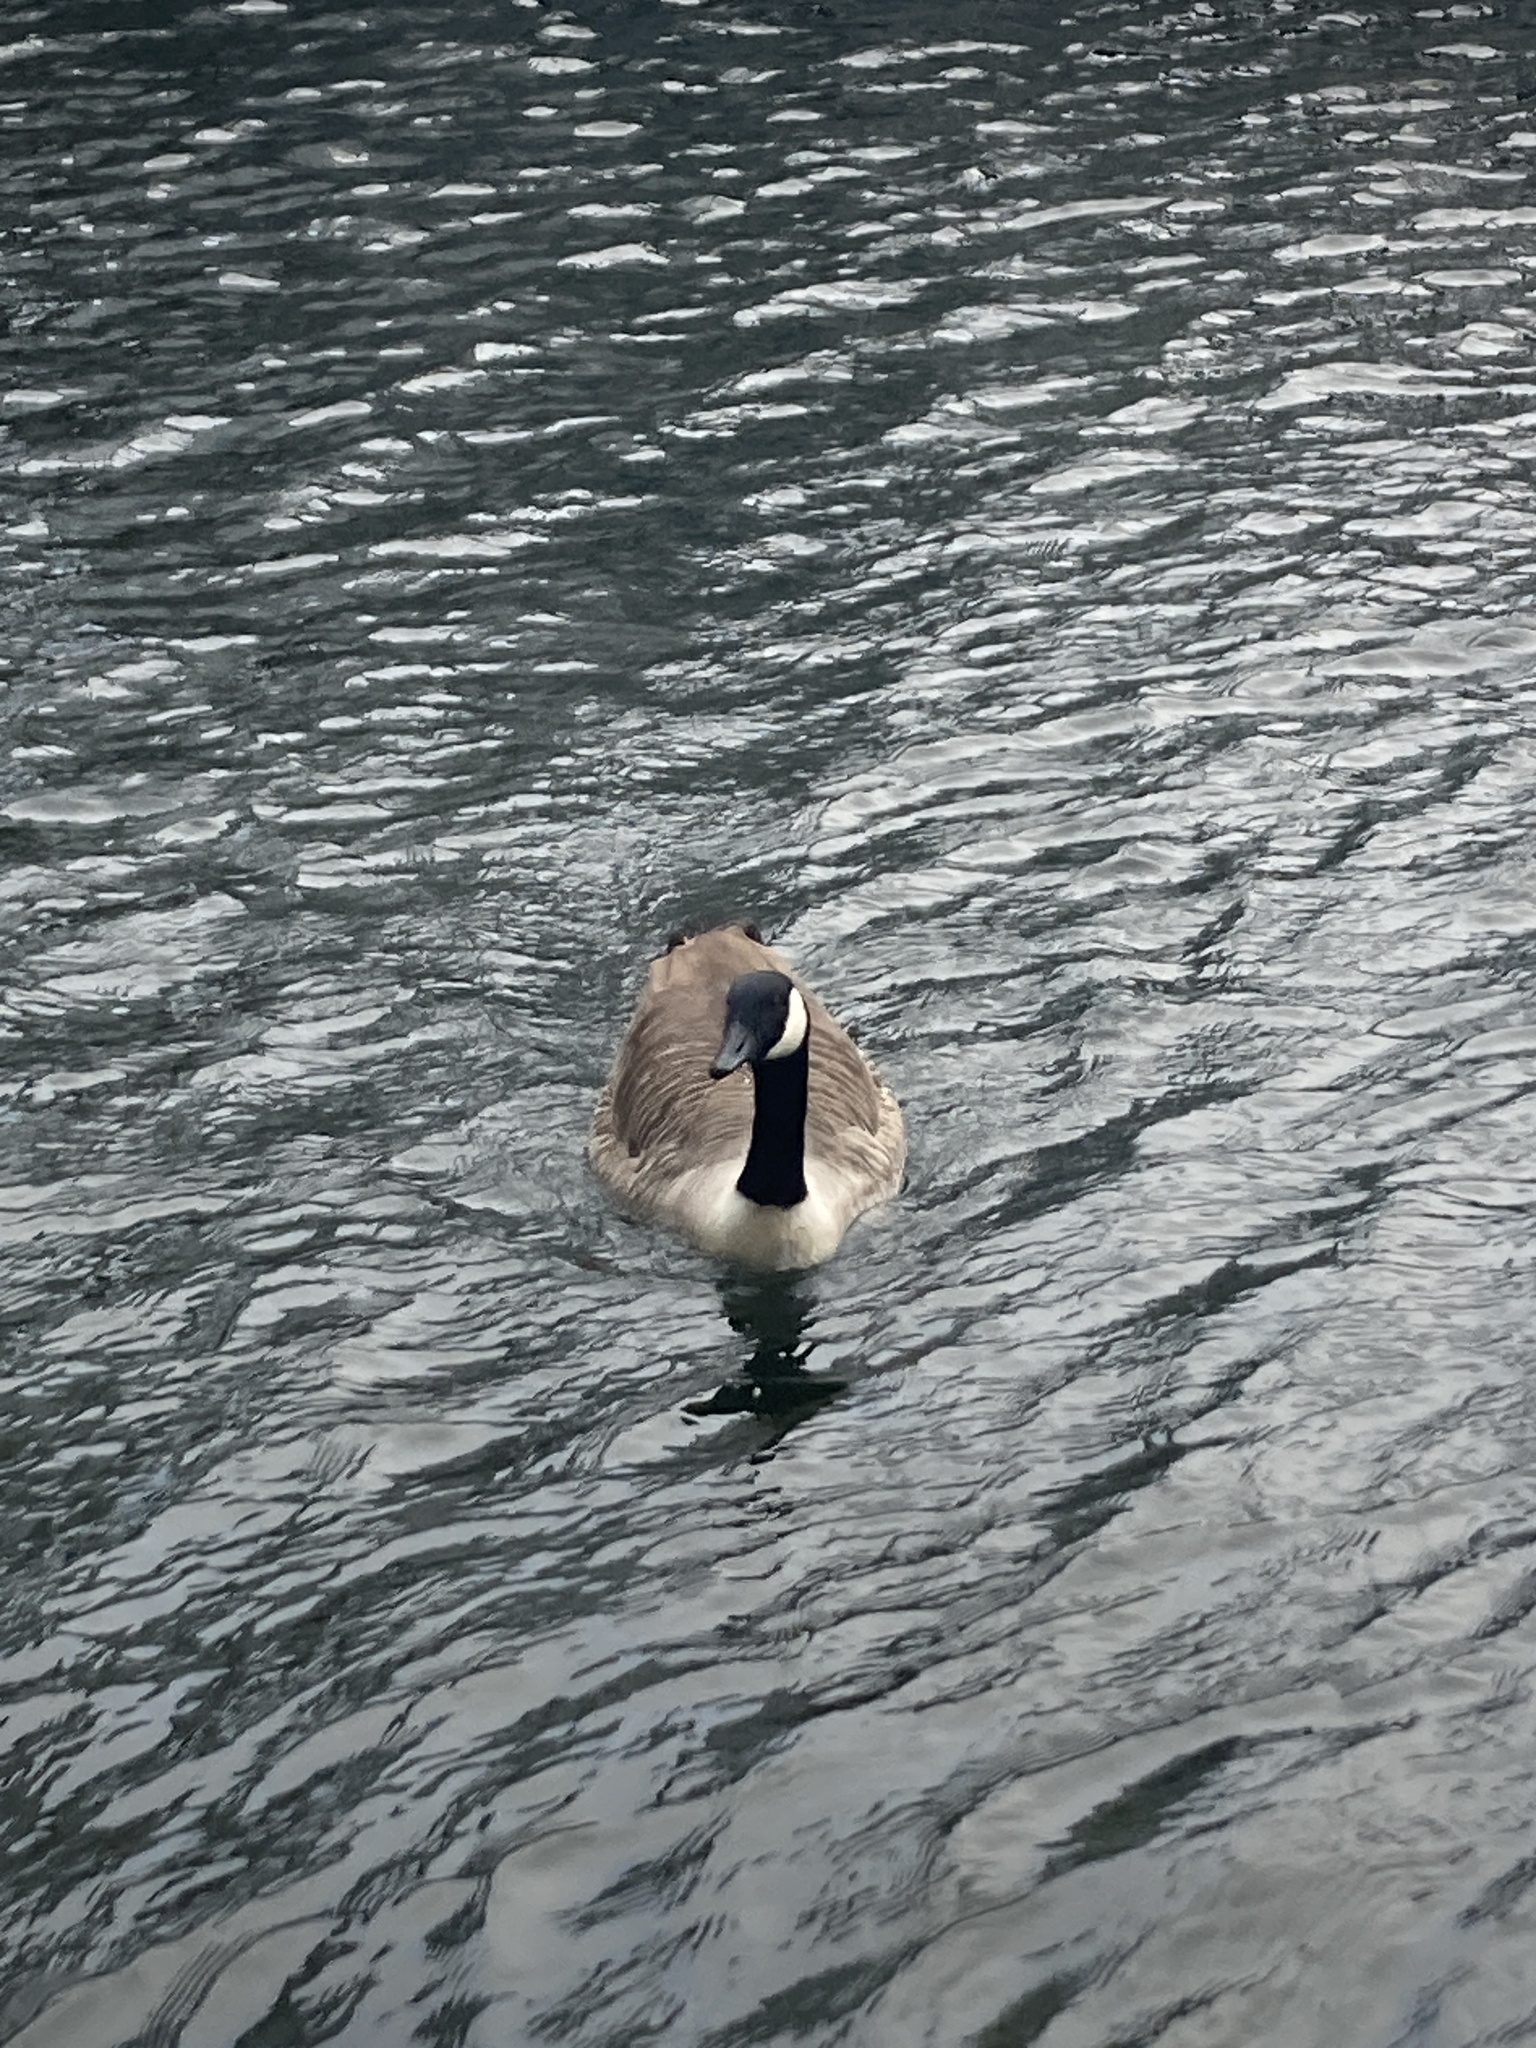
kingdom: Animalia
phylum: Chordata
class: Aves
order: Anseriformes
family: Anatidae
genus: Branta
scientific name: Branta canadensis
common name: Canada goose
